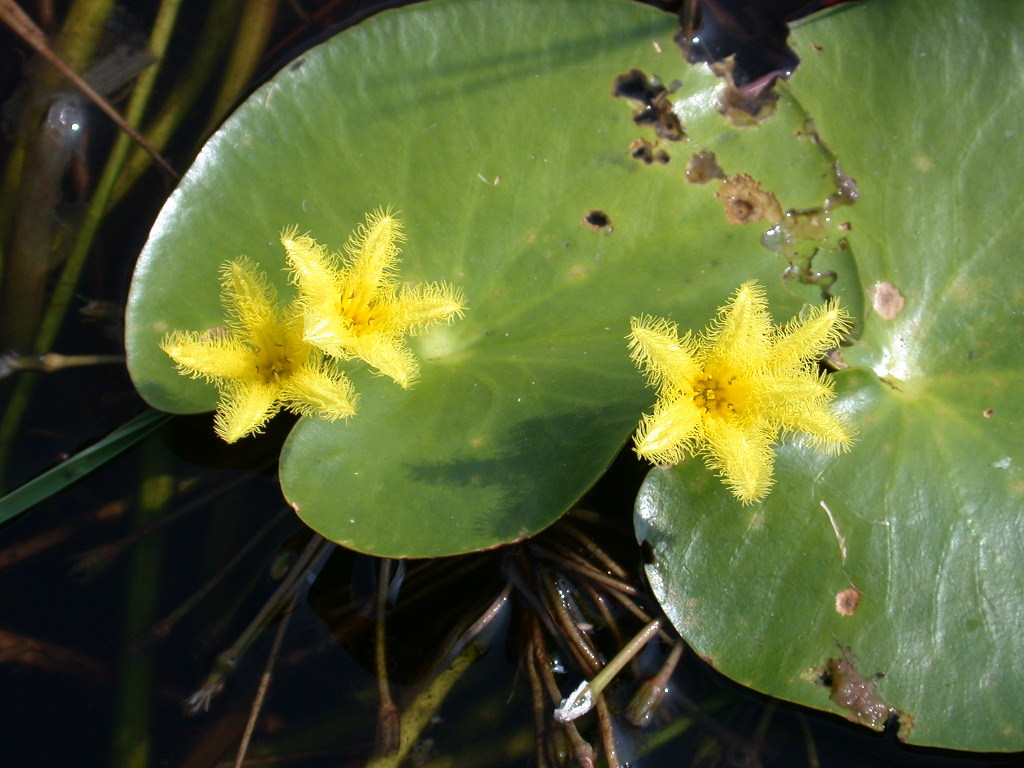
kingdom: Plantae
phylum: Tracheophyta
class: Magnoliopsida
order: Asterales
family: Menyanthaceae
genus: Nymphoides
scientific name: Nymphoides thunbergiana
